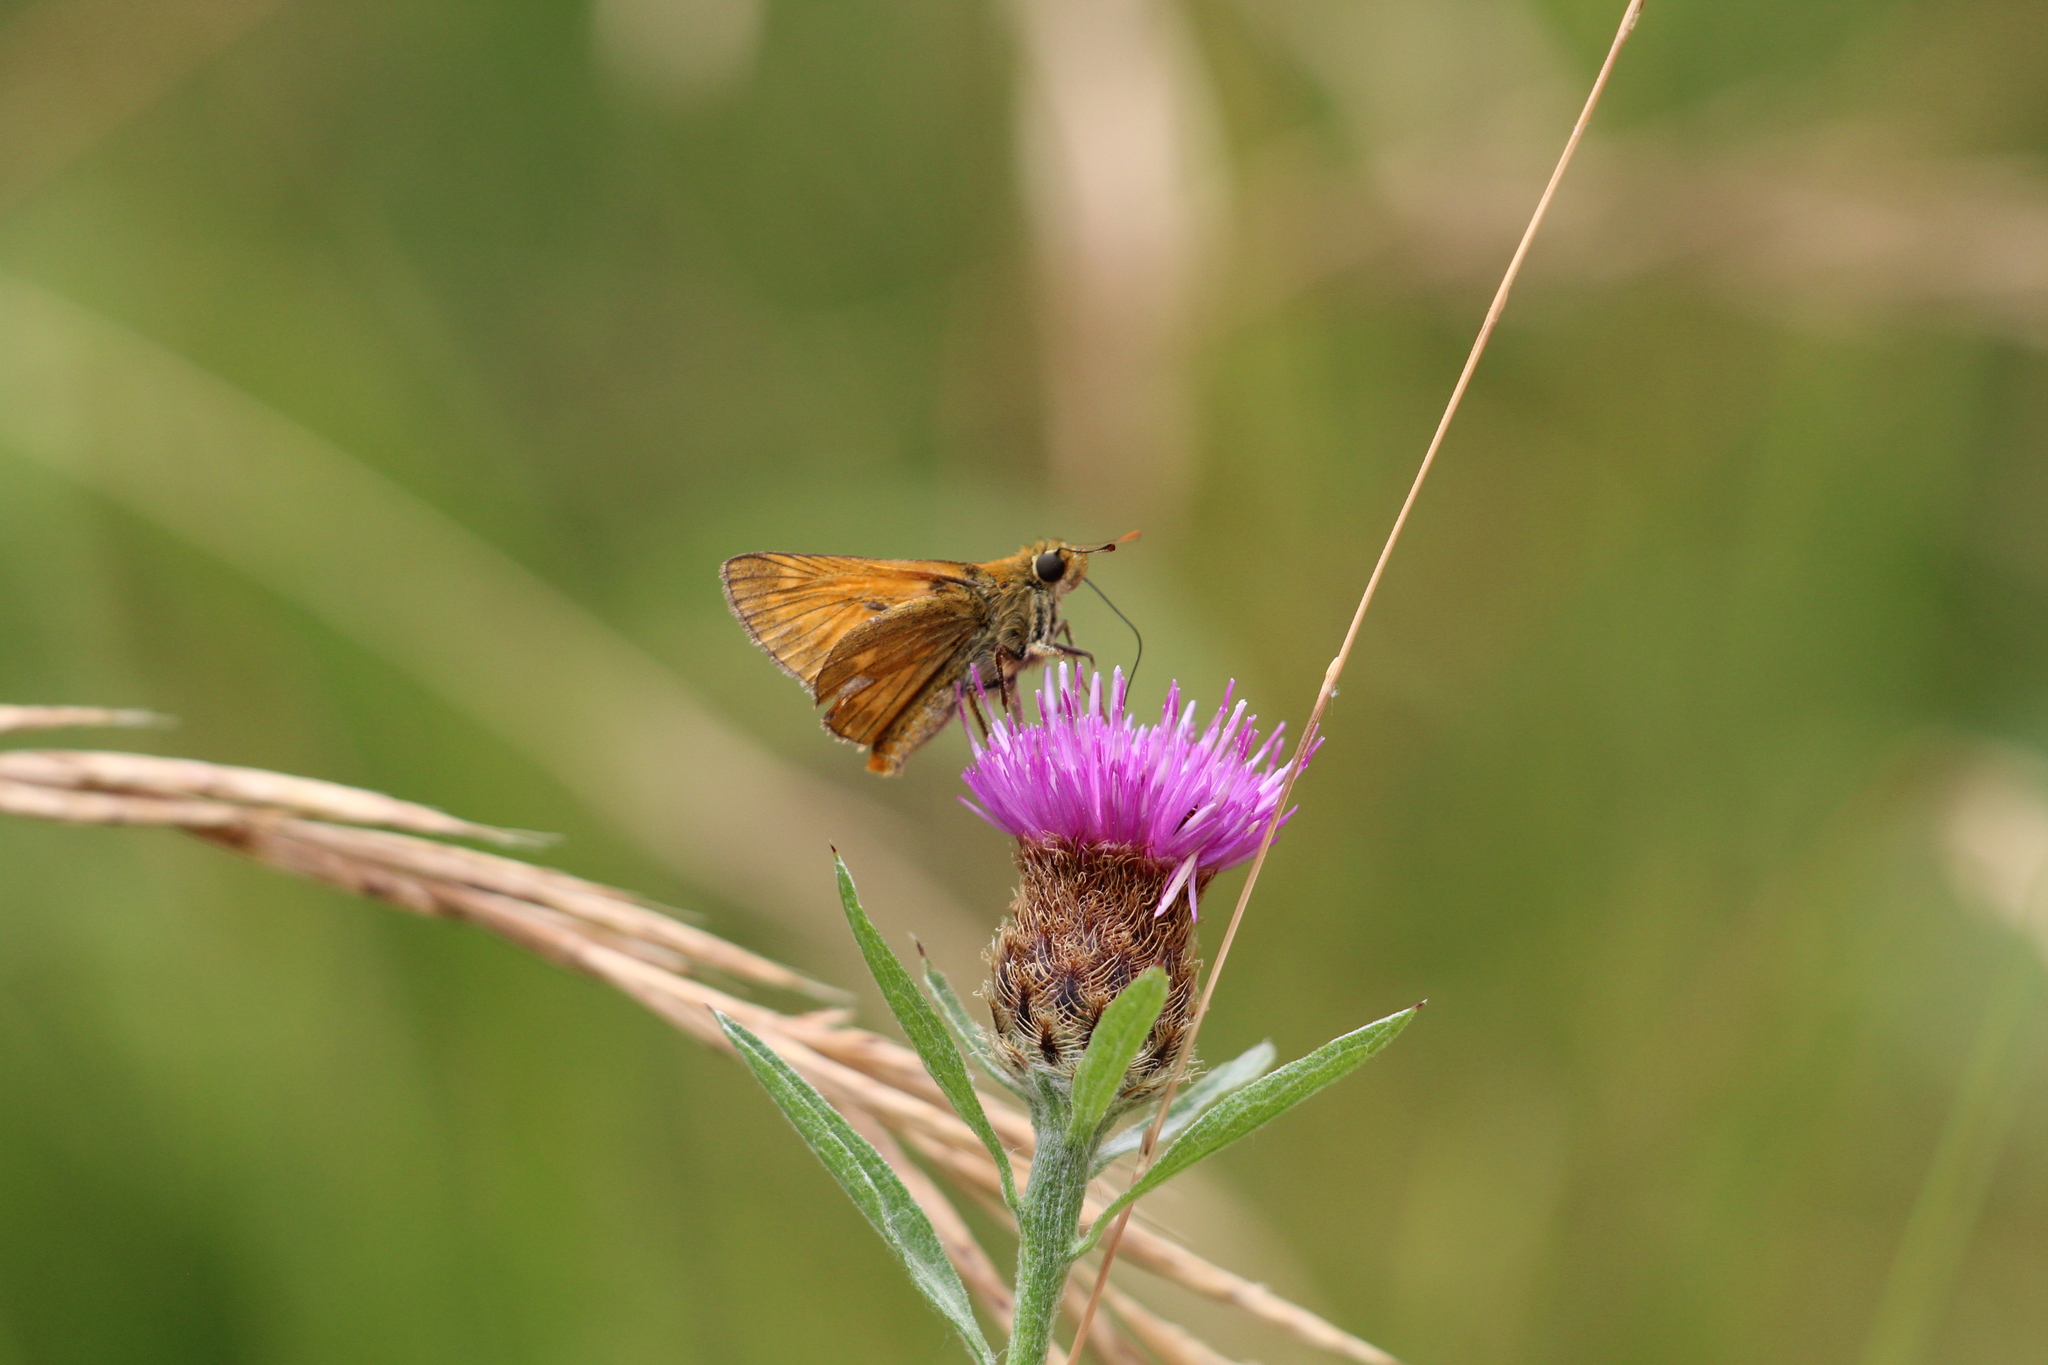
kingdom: Animalia
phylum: Arthropoda
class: Insecta
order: Lepidoptera
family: Hesperiidae
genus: Ochlodes
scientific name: Ochlodes venata
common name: Large skipper
